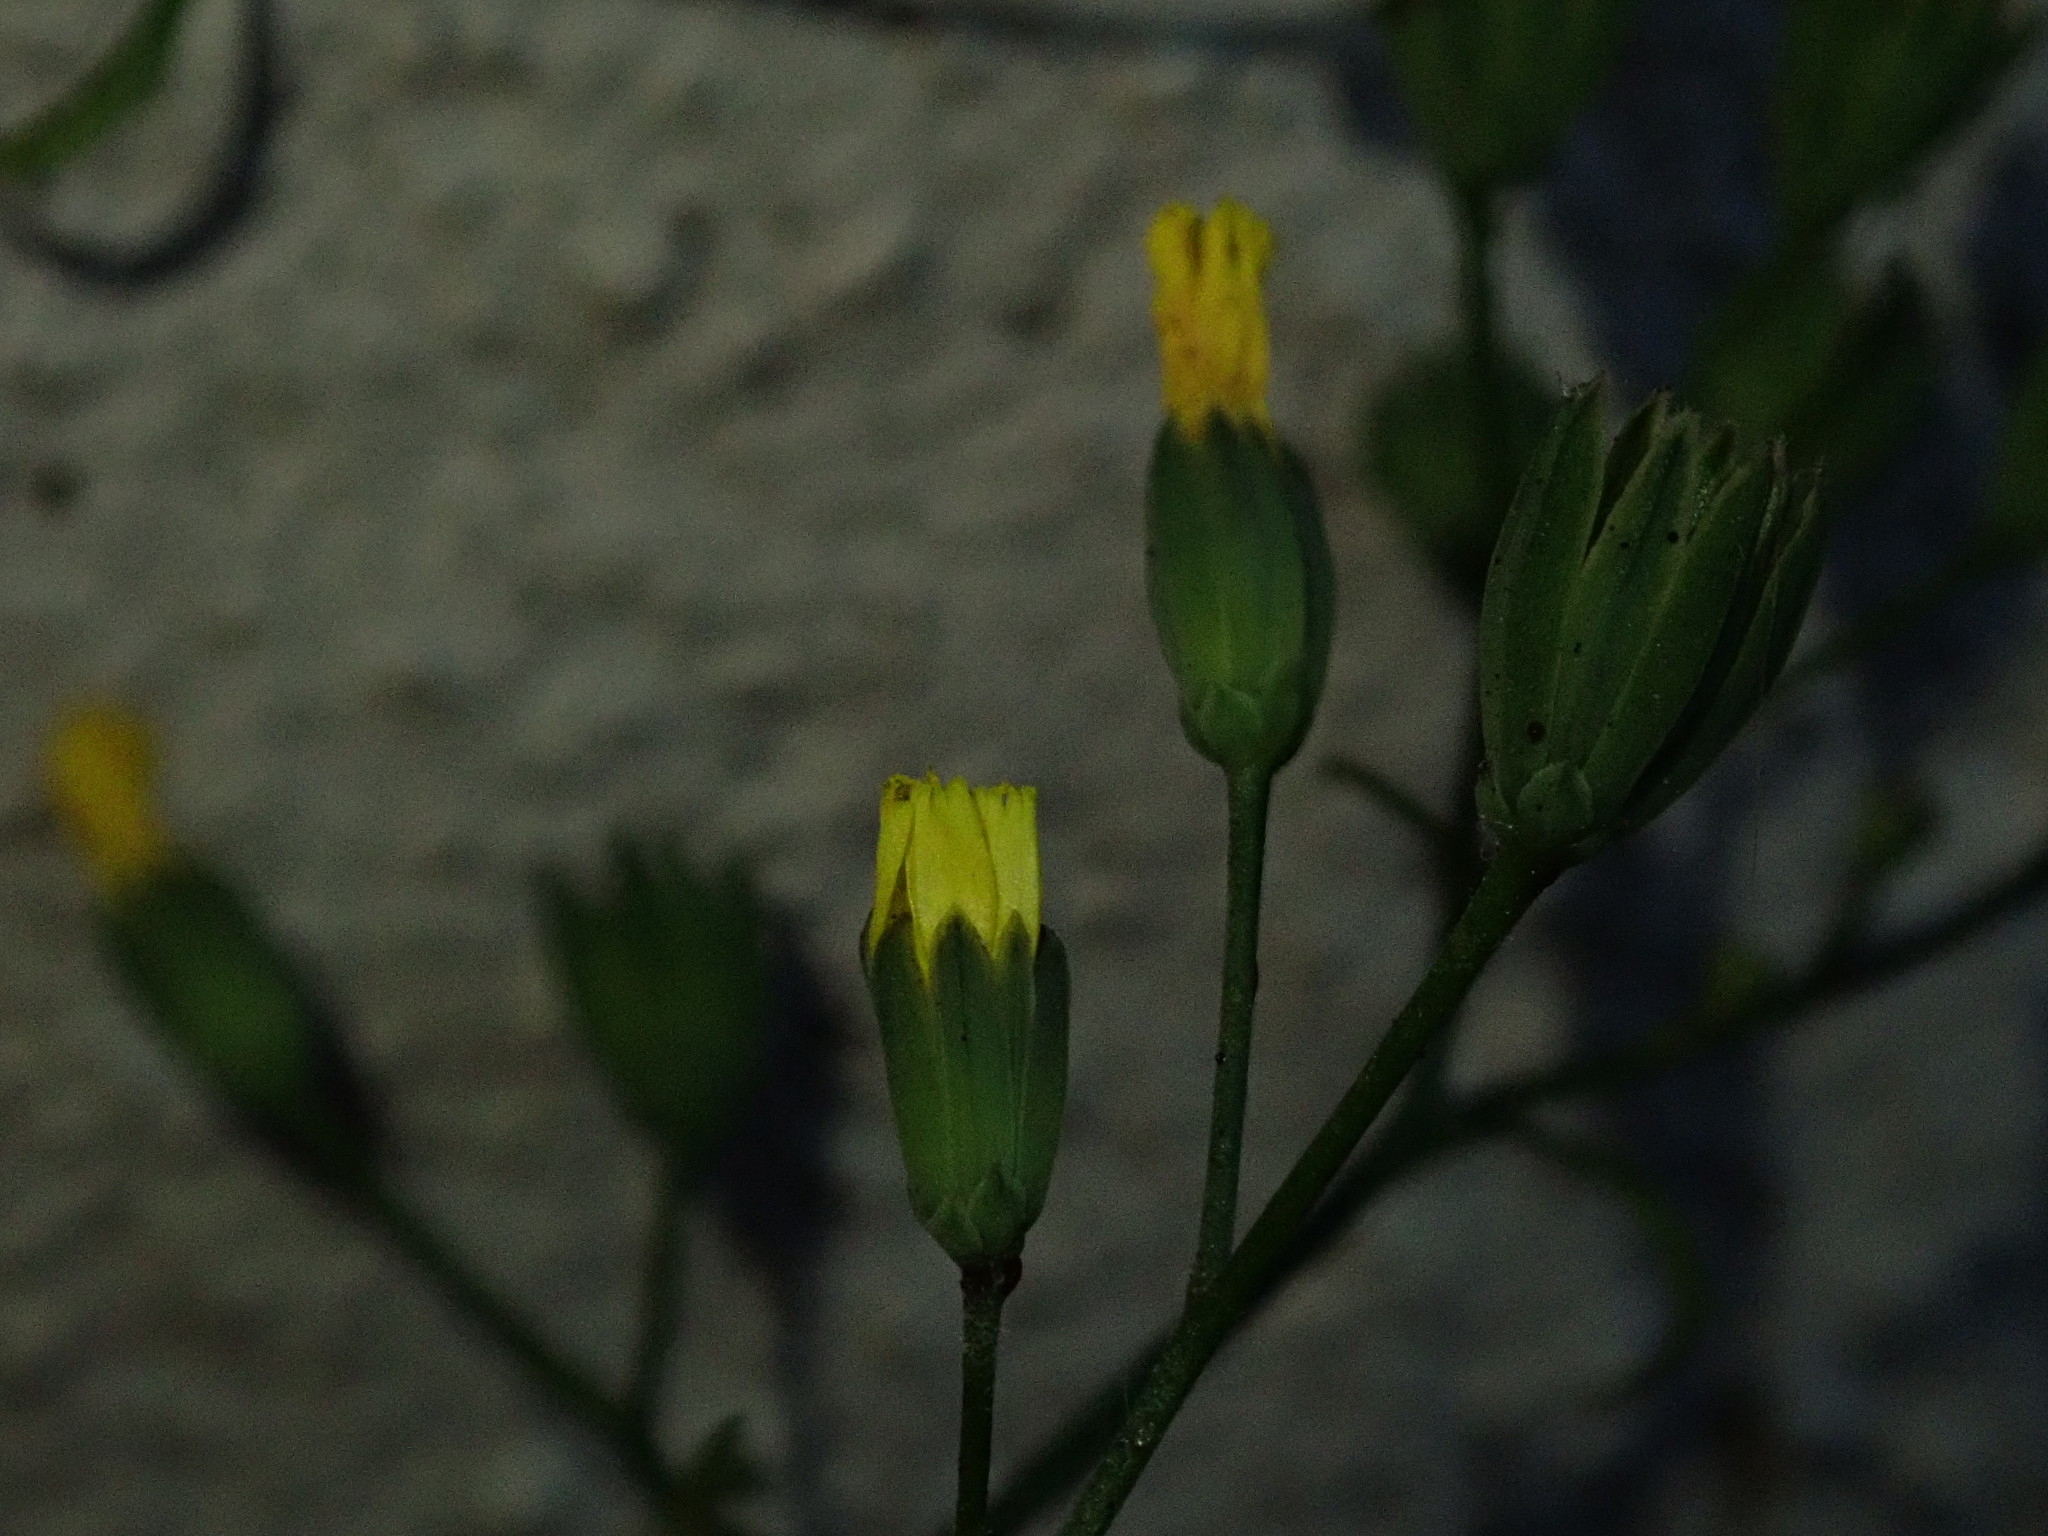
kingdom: Plantae
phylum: Tracheophyta
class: Magnoliopsida
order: Asterales
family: Asteraceae
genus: Lapsana
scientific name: Lapsana communis
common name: Nipplewort
